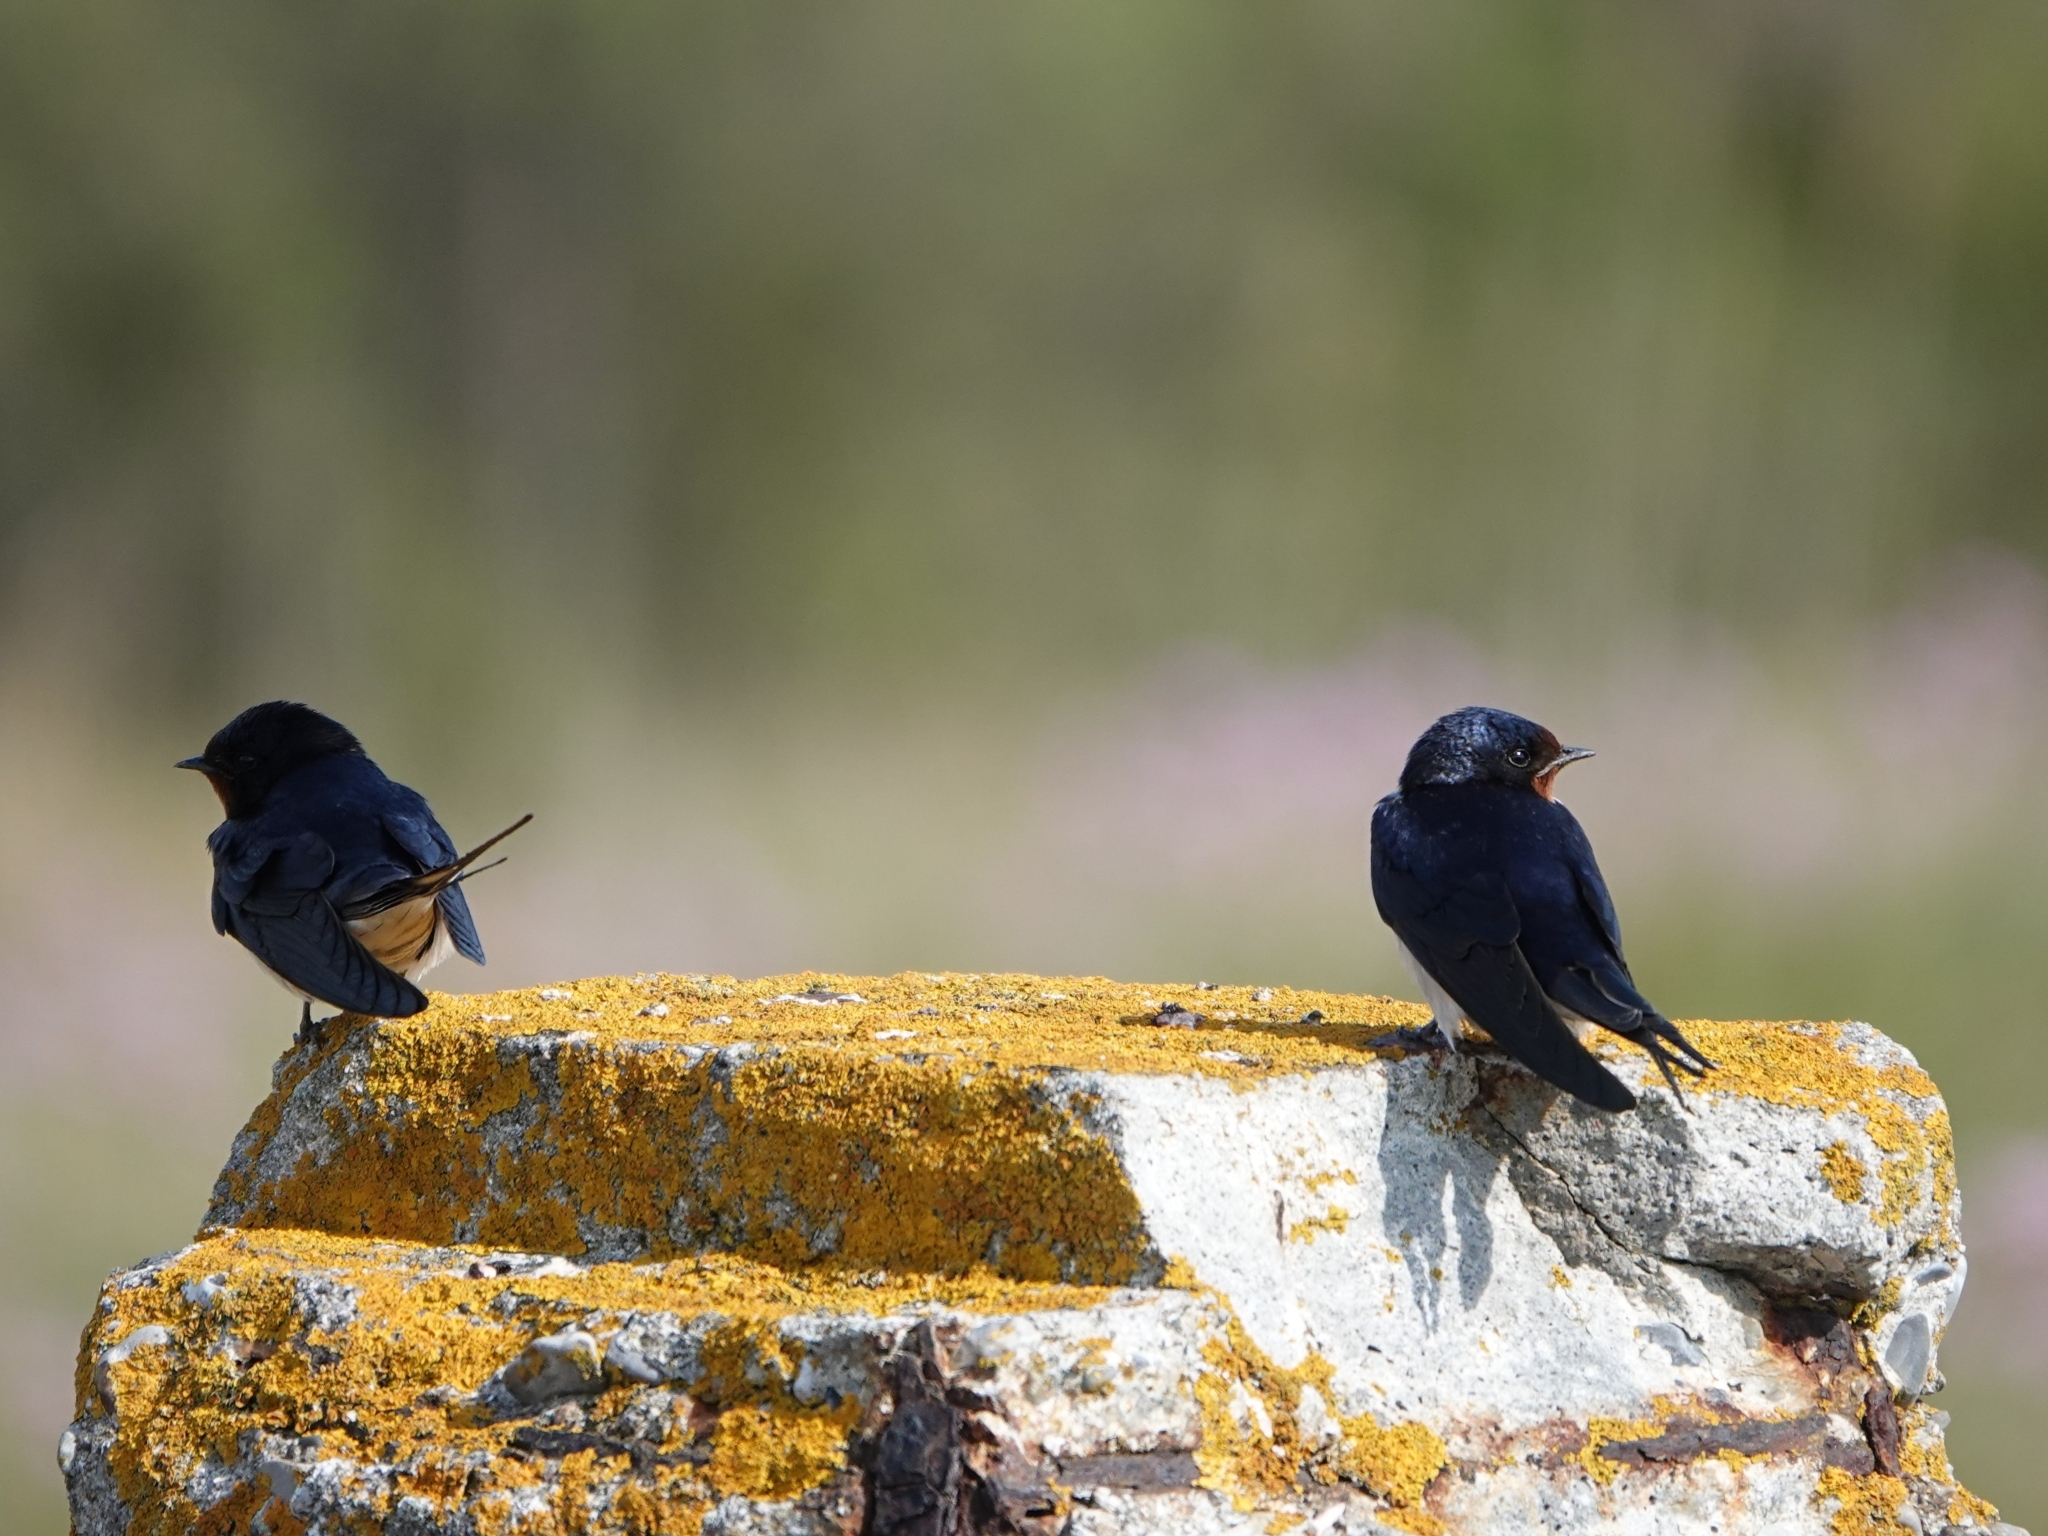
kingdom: Animalia
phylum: Chordata
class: Aves
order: Passeriformes
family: Hirundinidae
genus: Hirundo
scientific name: Hirundo rustica
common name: Barn swallow
